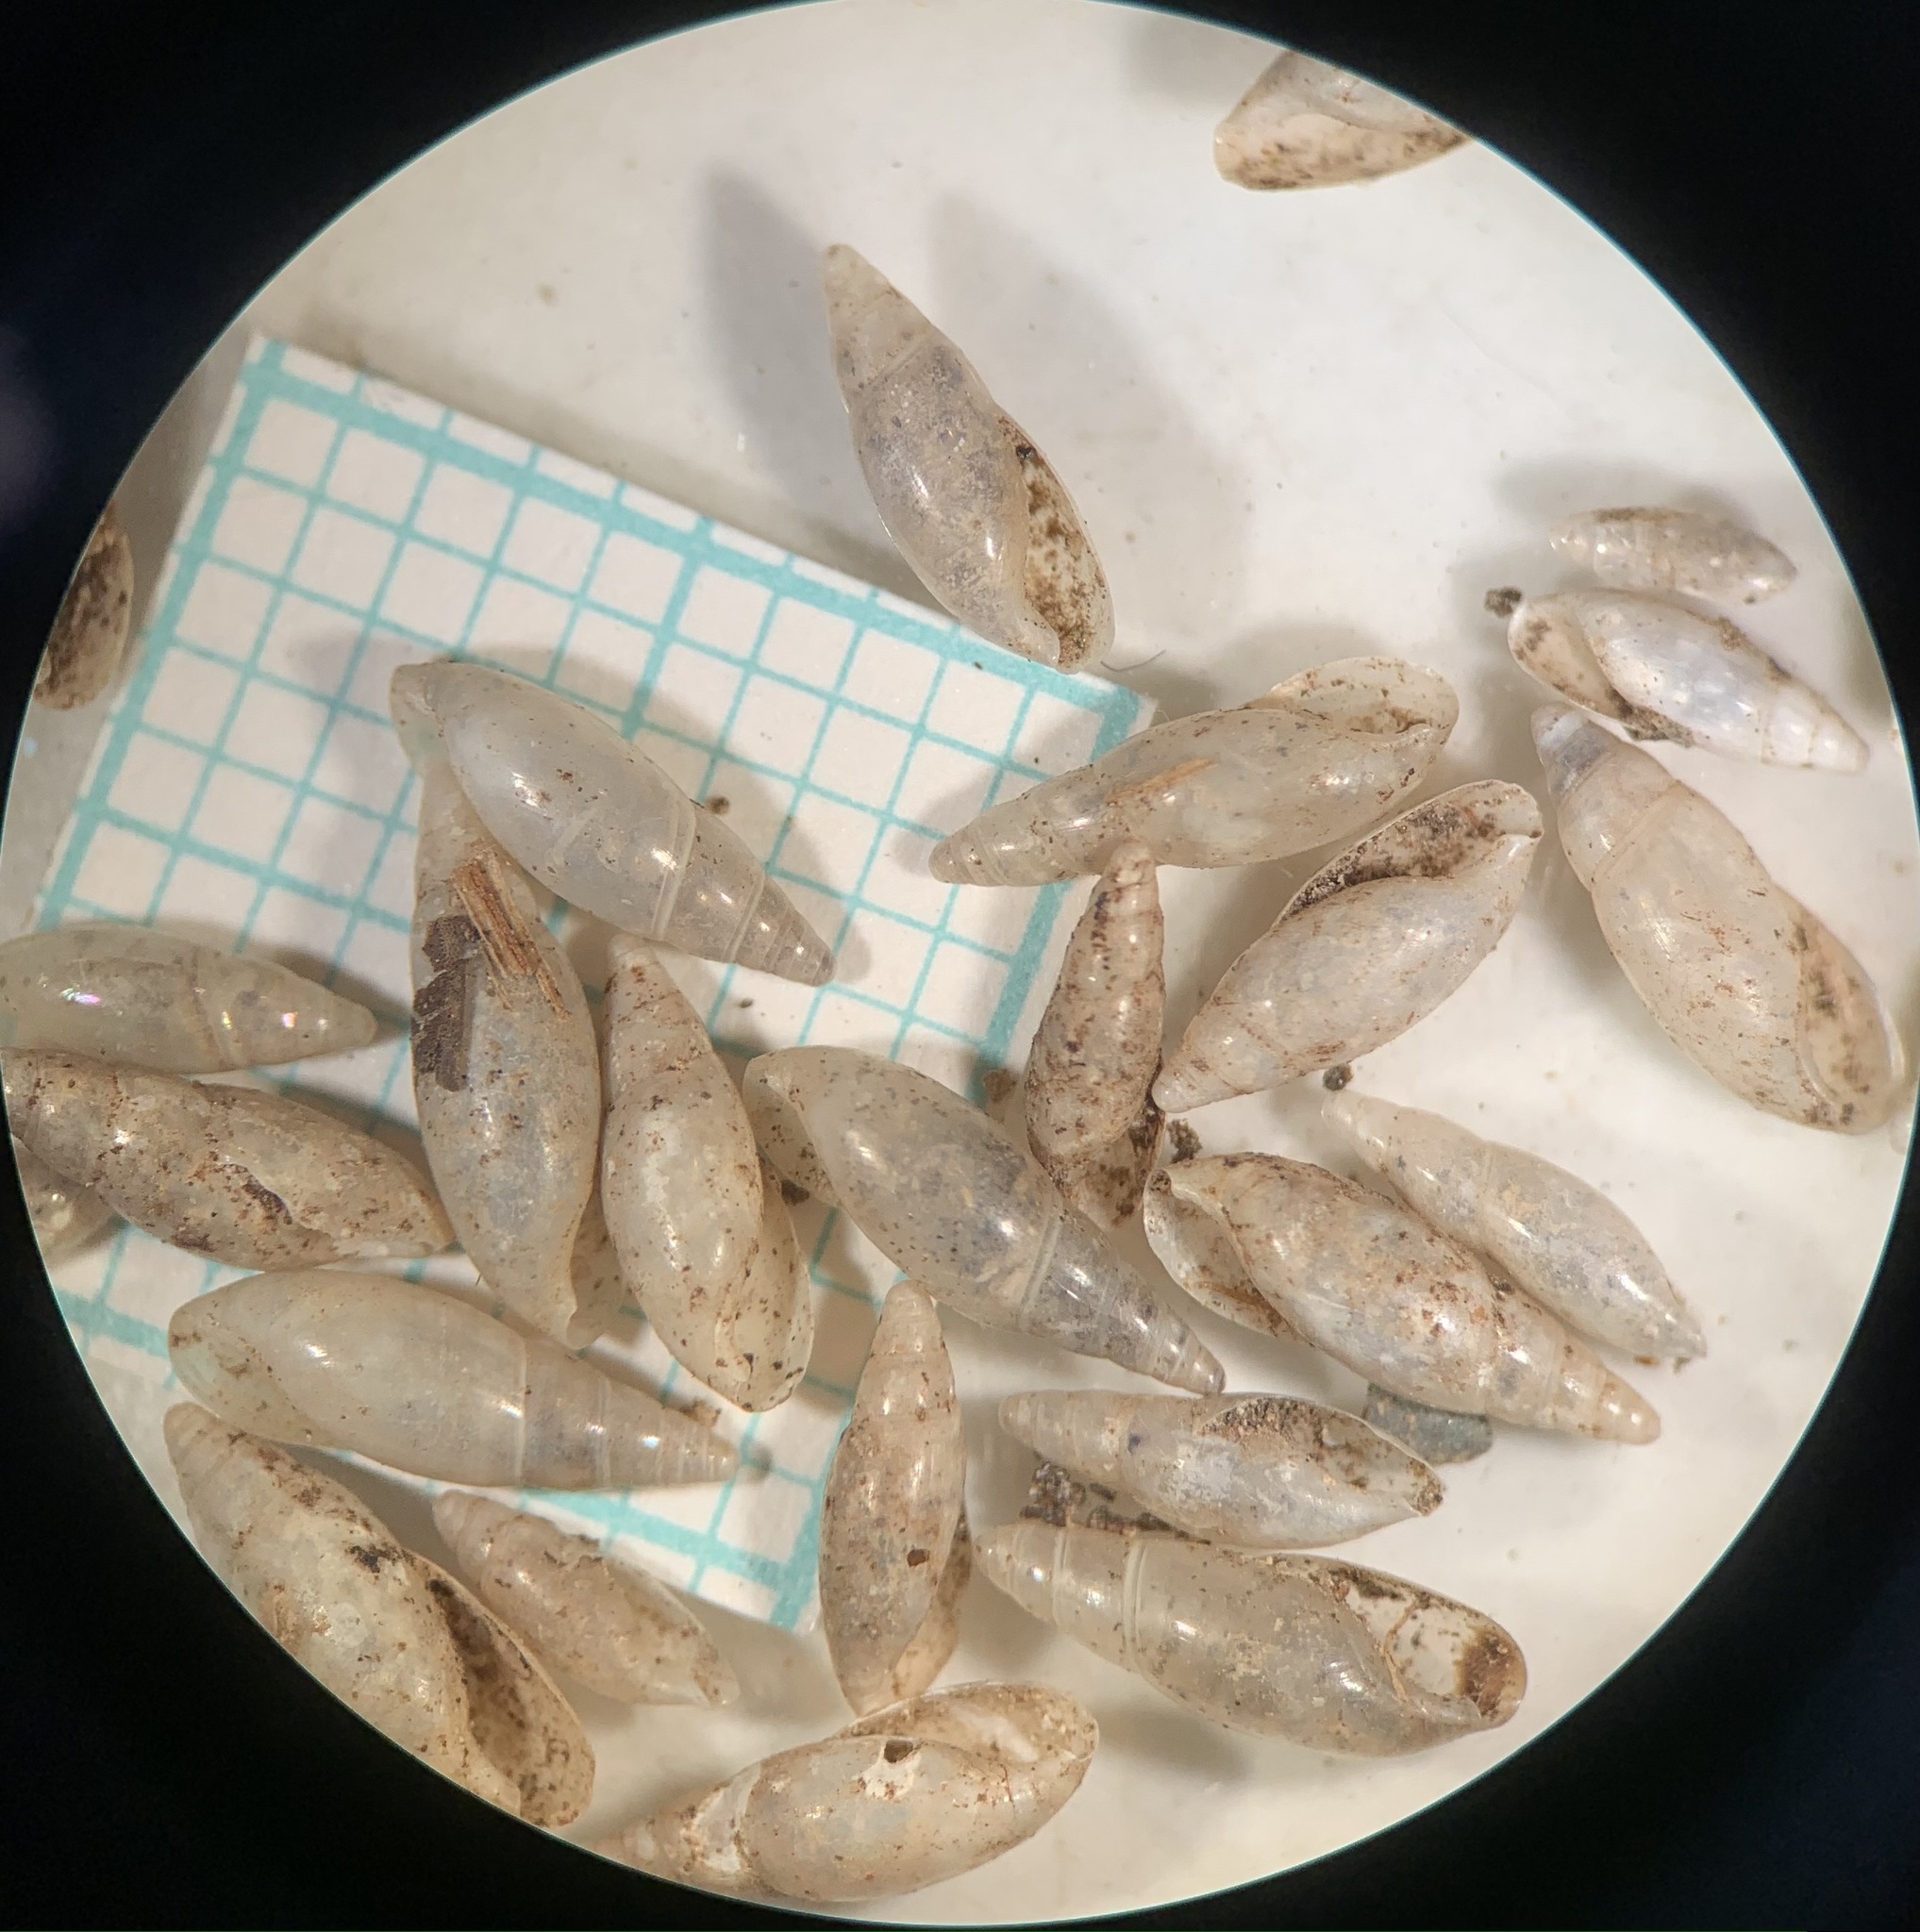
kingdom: Animalia
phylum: Mollusca
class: Gastropoda
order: Stylommatophora
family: Ferussaciidae
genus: Hohenwartiana
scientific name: Hohenwartiana hohenwarti
